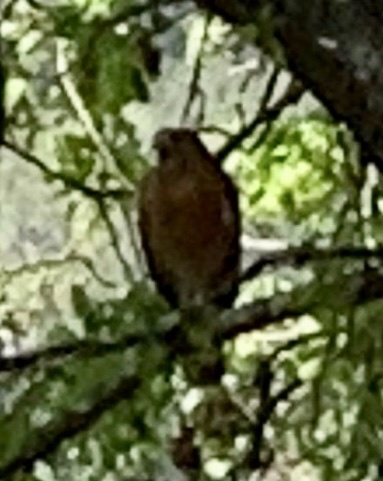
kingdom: Animalia
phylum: Chordata
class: Aves
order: Accipitriformes
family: Accipitridae
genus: Buteo
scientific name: Buteo lineatus
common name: Red-shouldered hawk
